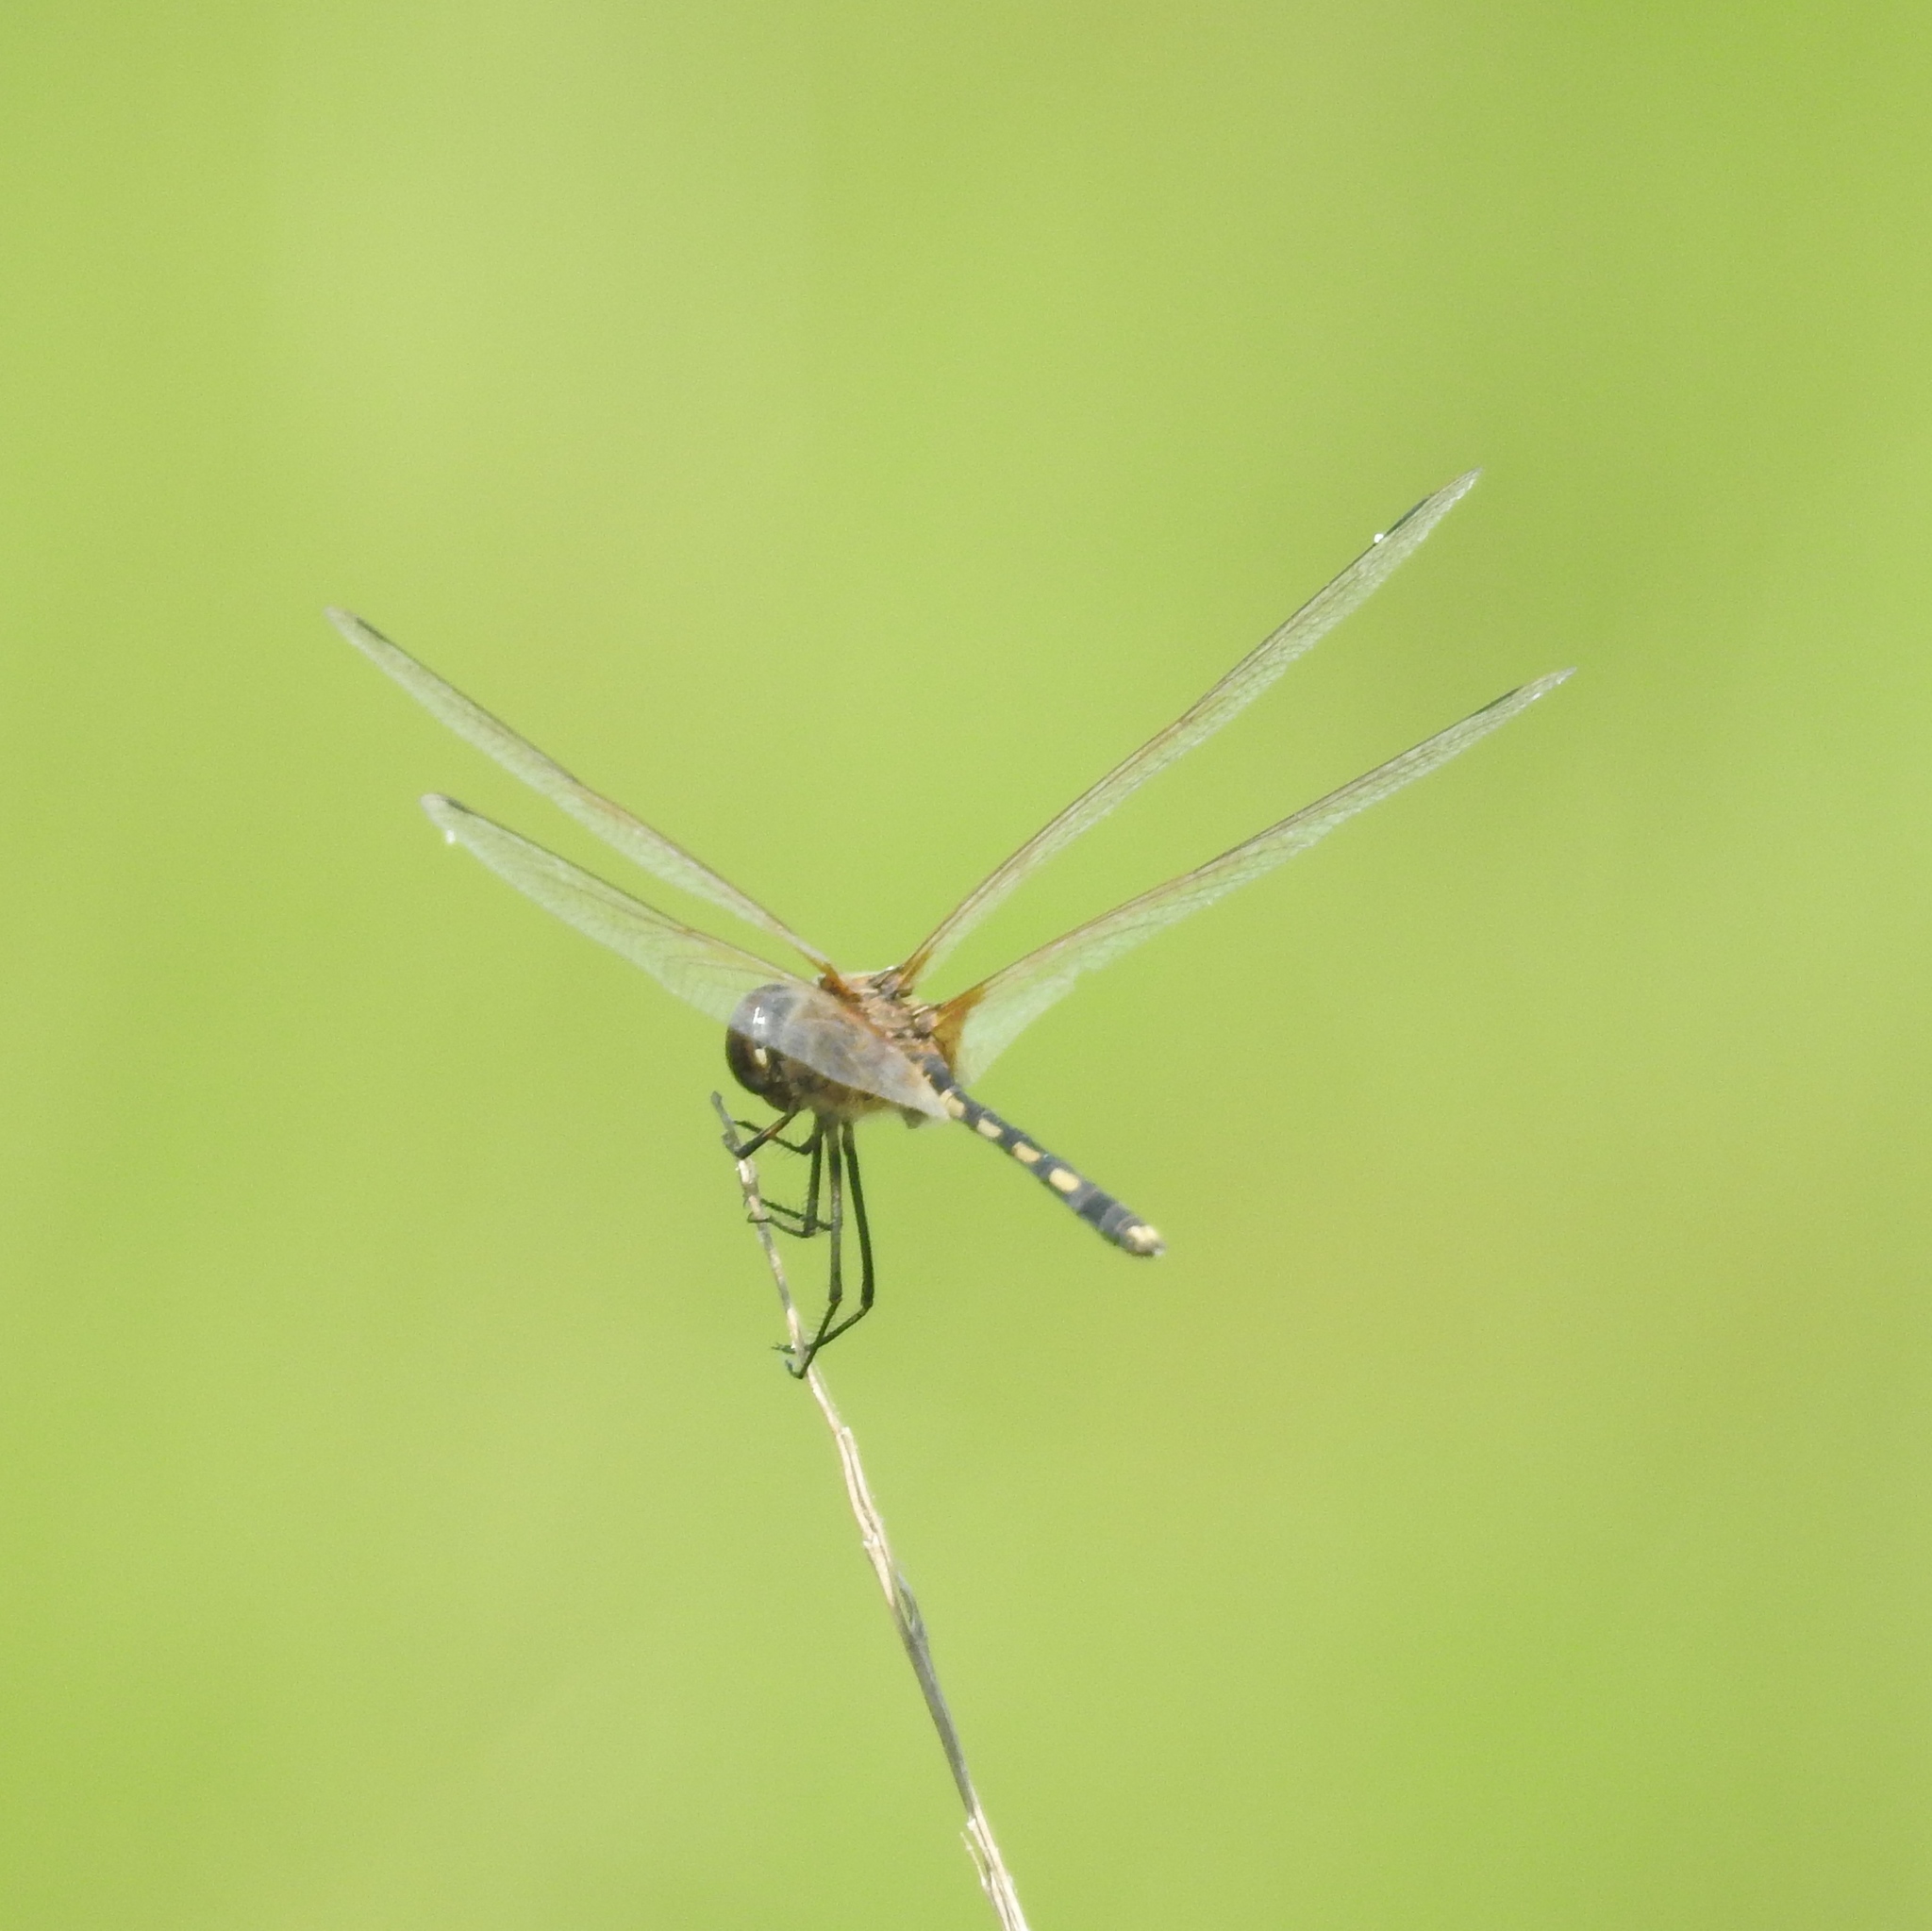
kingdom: Animalia
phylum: Arthropoda
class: Insecta
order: Odonata
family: Libellulidae
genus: Trithemis
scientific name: Trithemis pallidinervis
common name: Dancing dropwing
